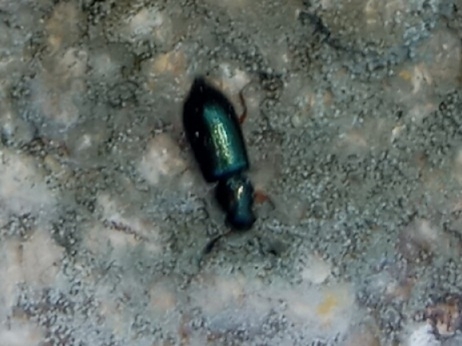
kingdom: Animalia
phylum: Arthropoda
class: Insecta
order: Coleoptera
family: Cleridae
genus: Necrobia
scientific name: Necrobia rufipes
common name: Red-legged ham beetle
